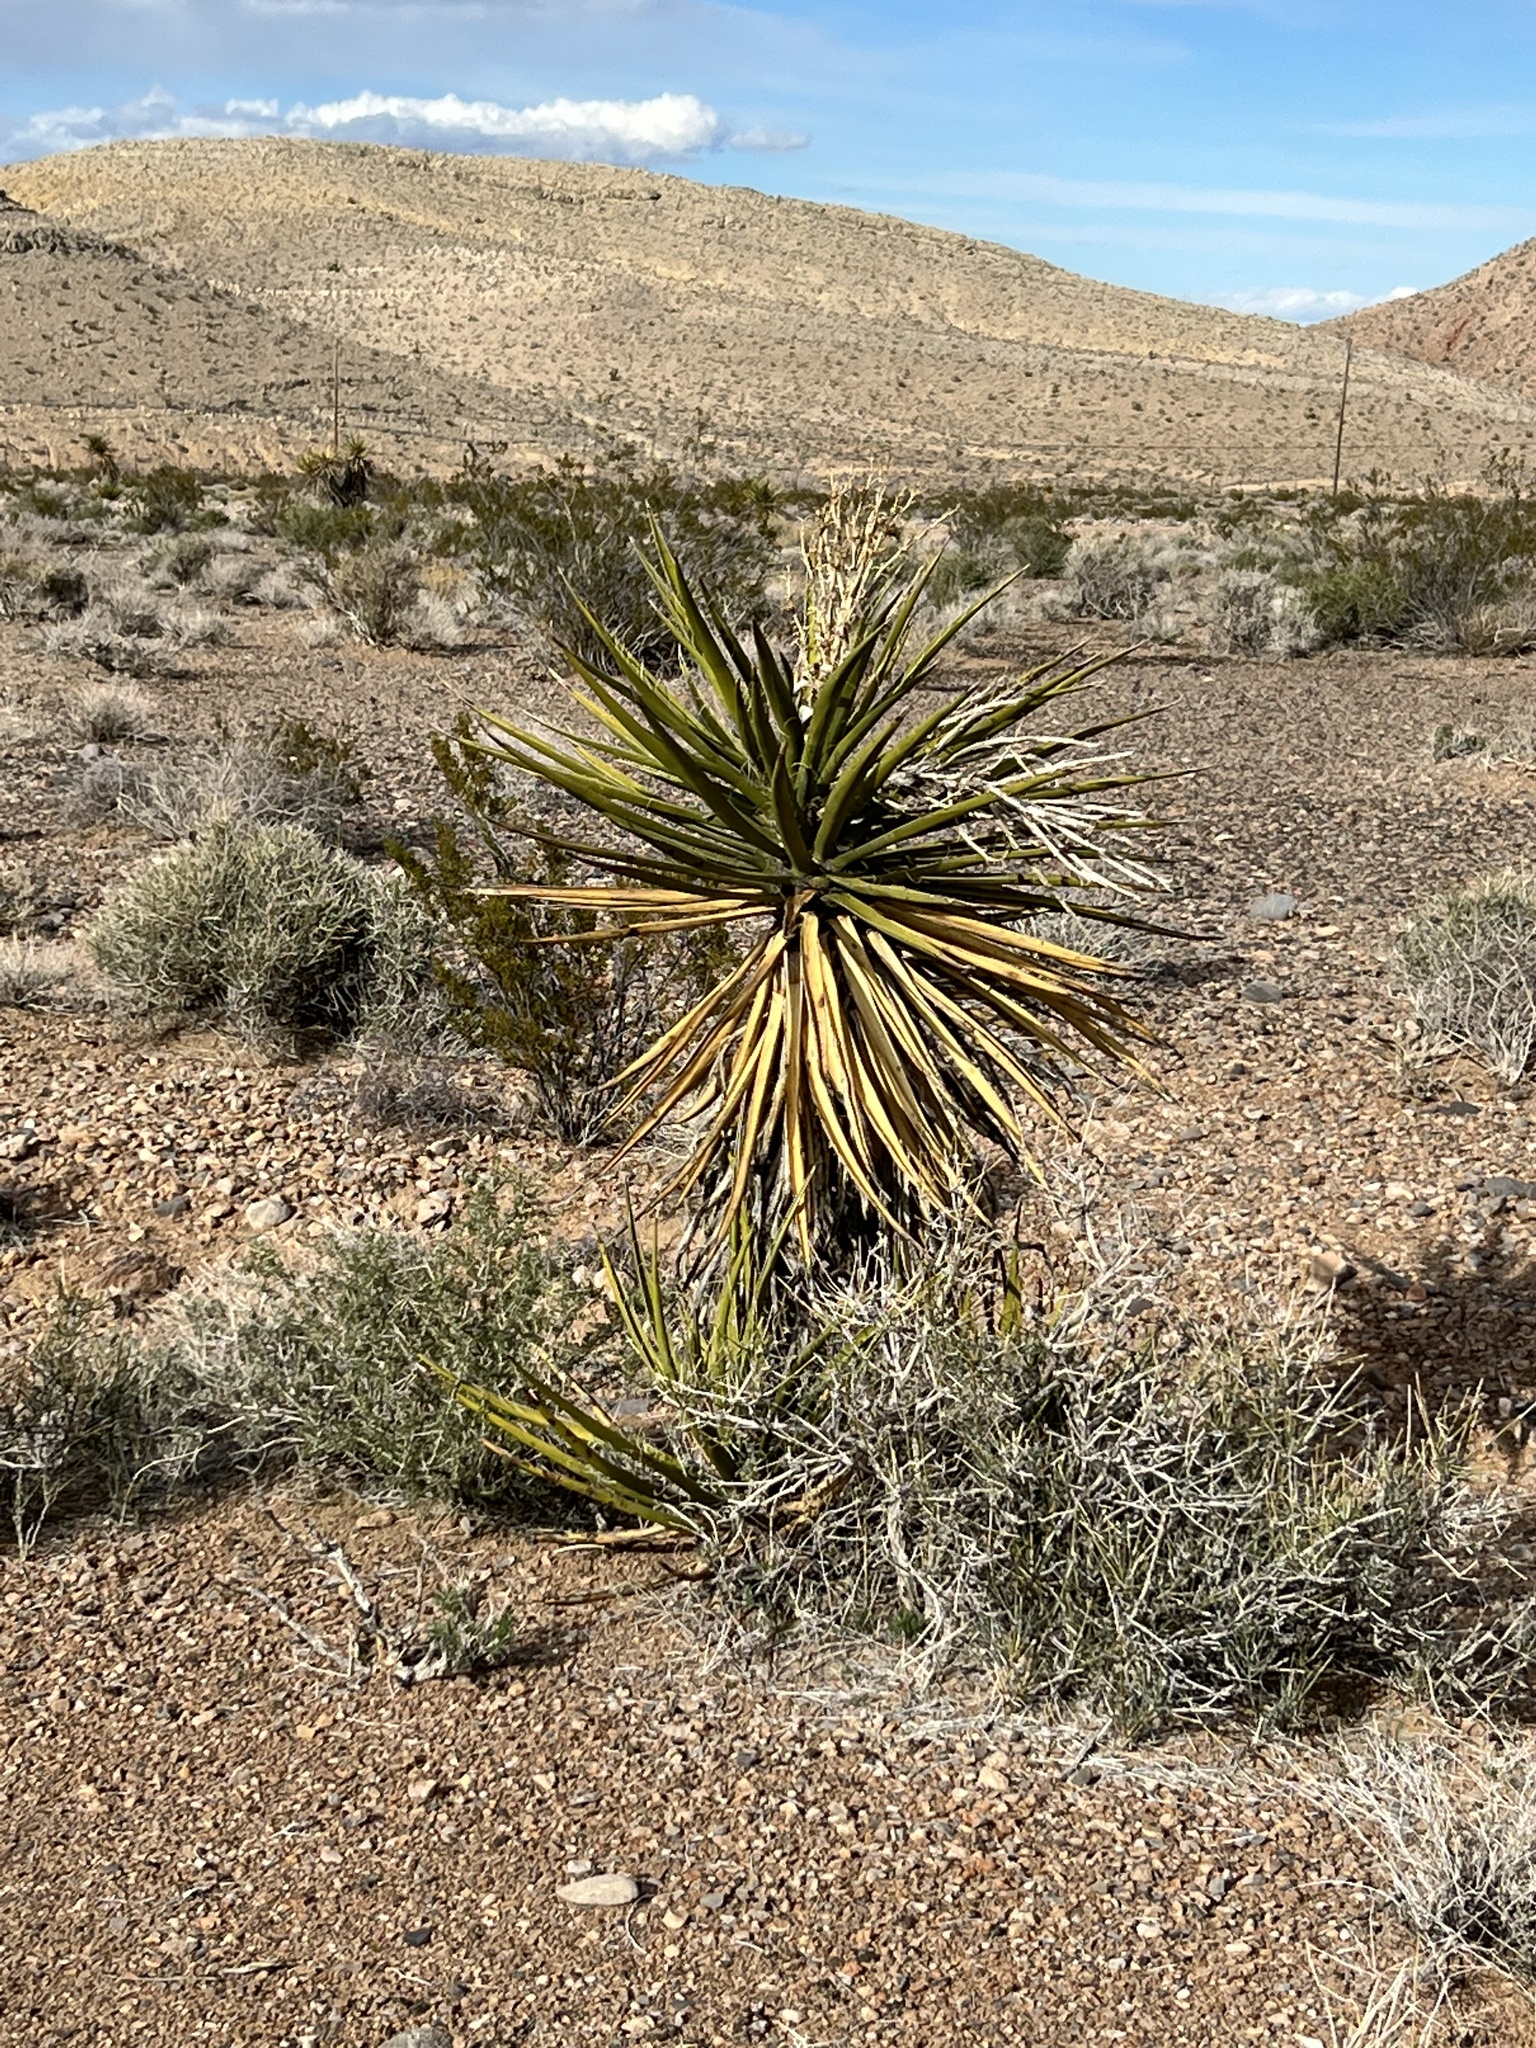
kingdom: Plantae
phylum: Tracheophyta
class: Liliopsida
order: Asparagales
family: Asparagaceae
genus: Yucca
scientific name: Yucca schidigera
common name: Mojave yucca
